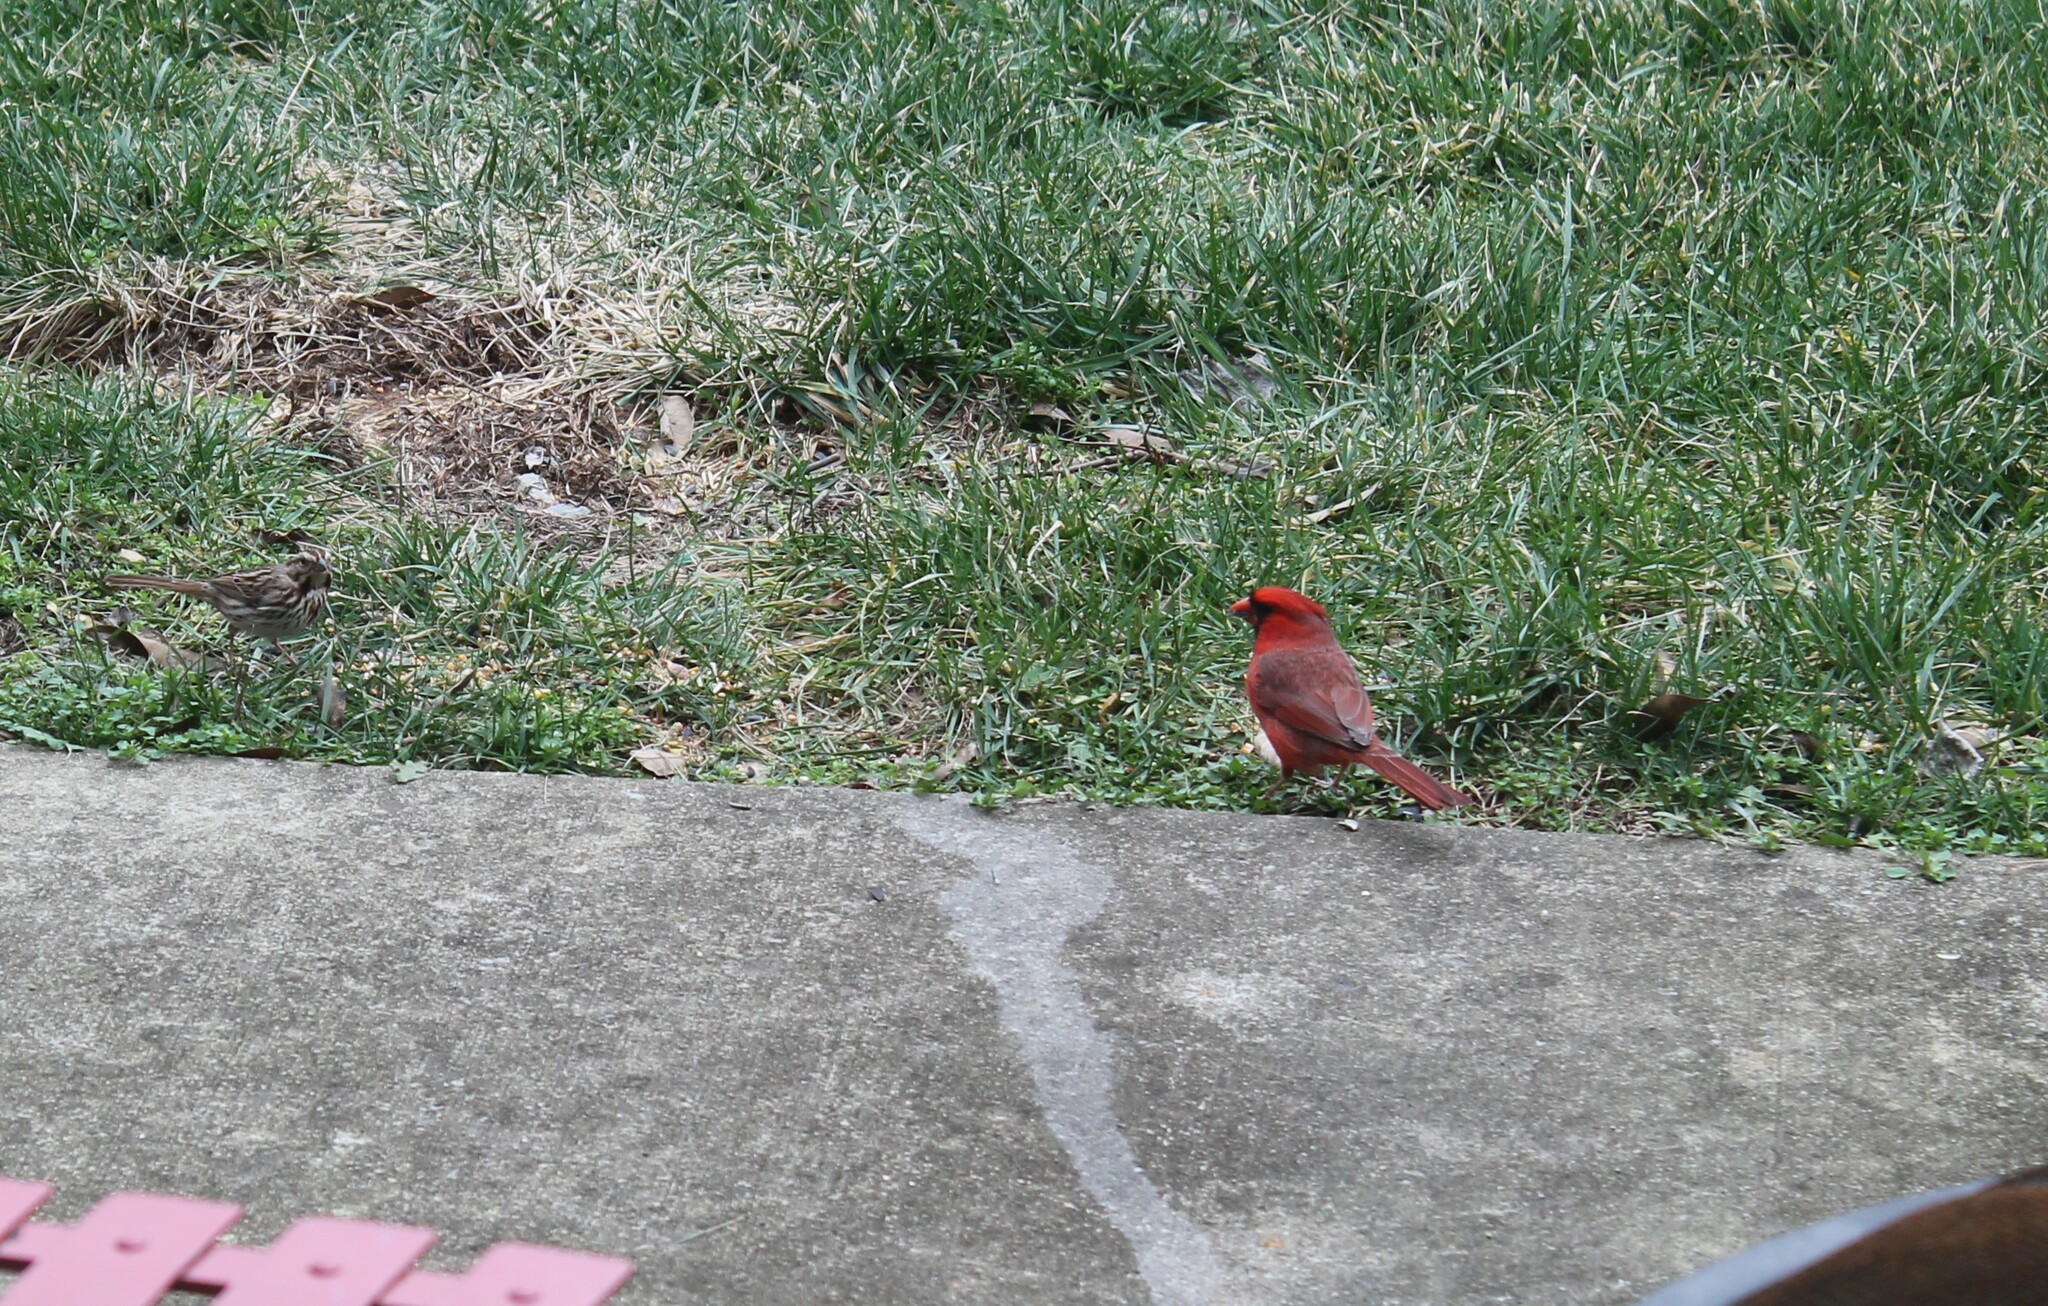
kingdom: Animalia
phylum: Chordata
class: Aves
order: Passeriformes
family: Cardinalidae
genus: Cardinalis
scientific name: Cardinalis cardinalis
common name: Northern cardinal
